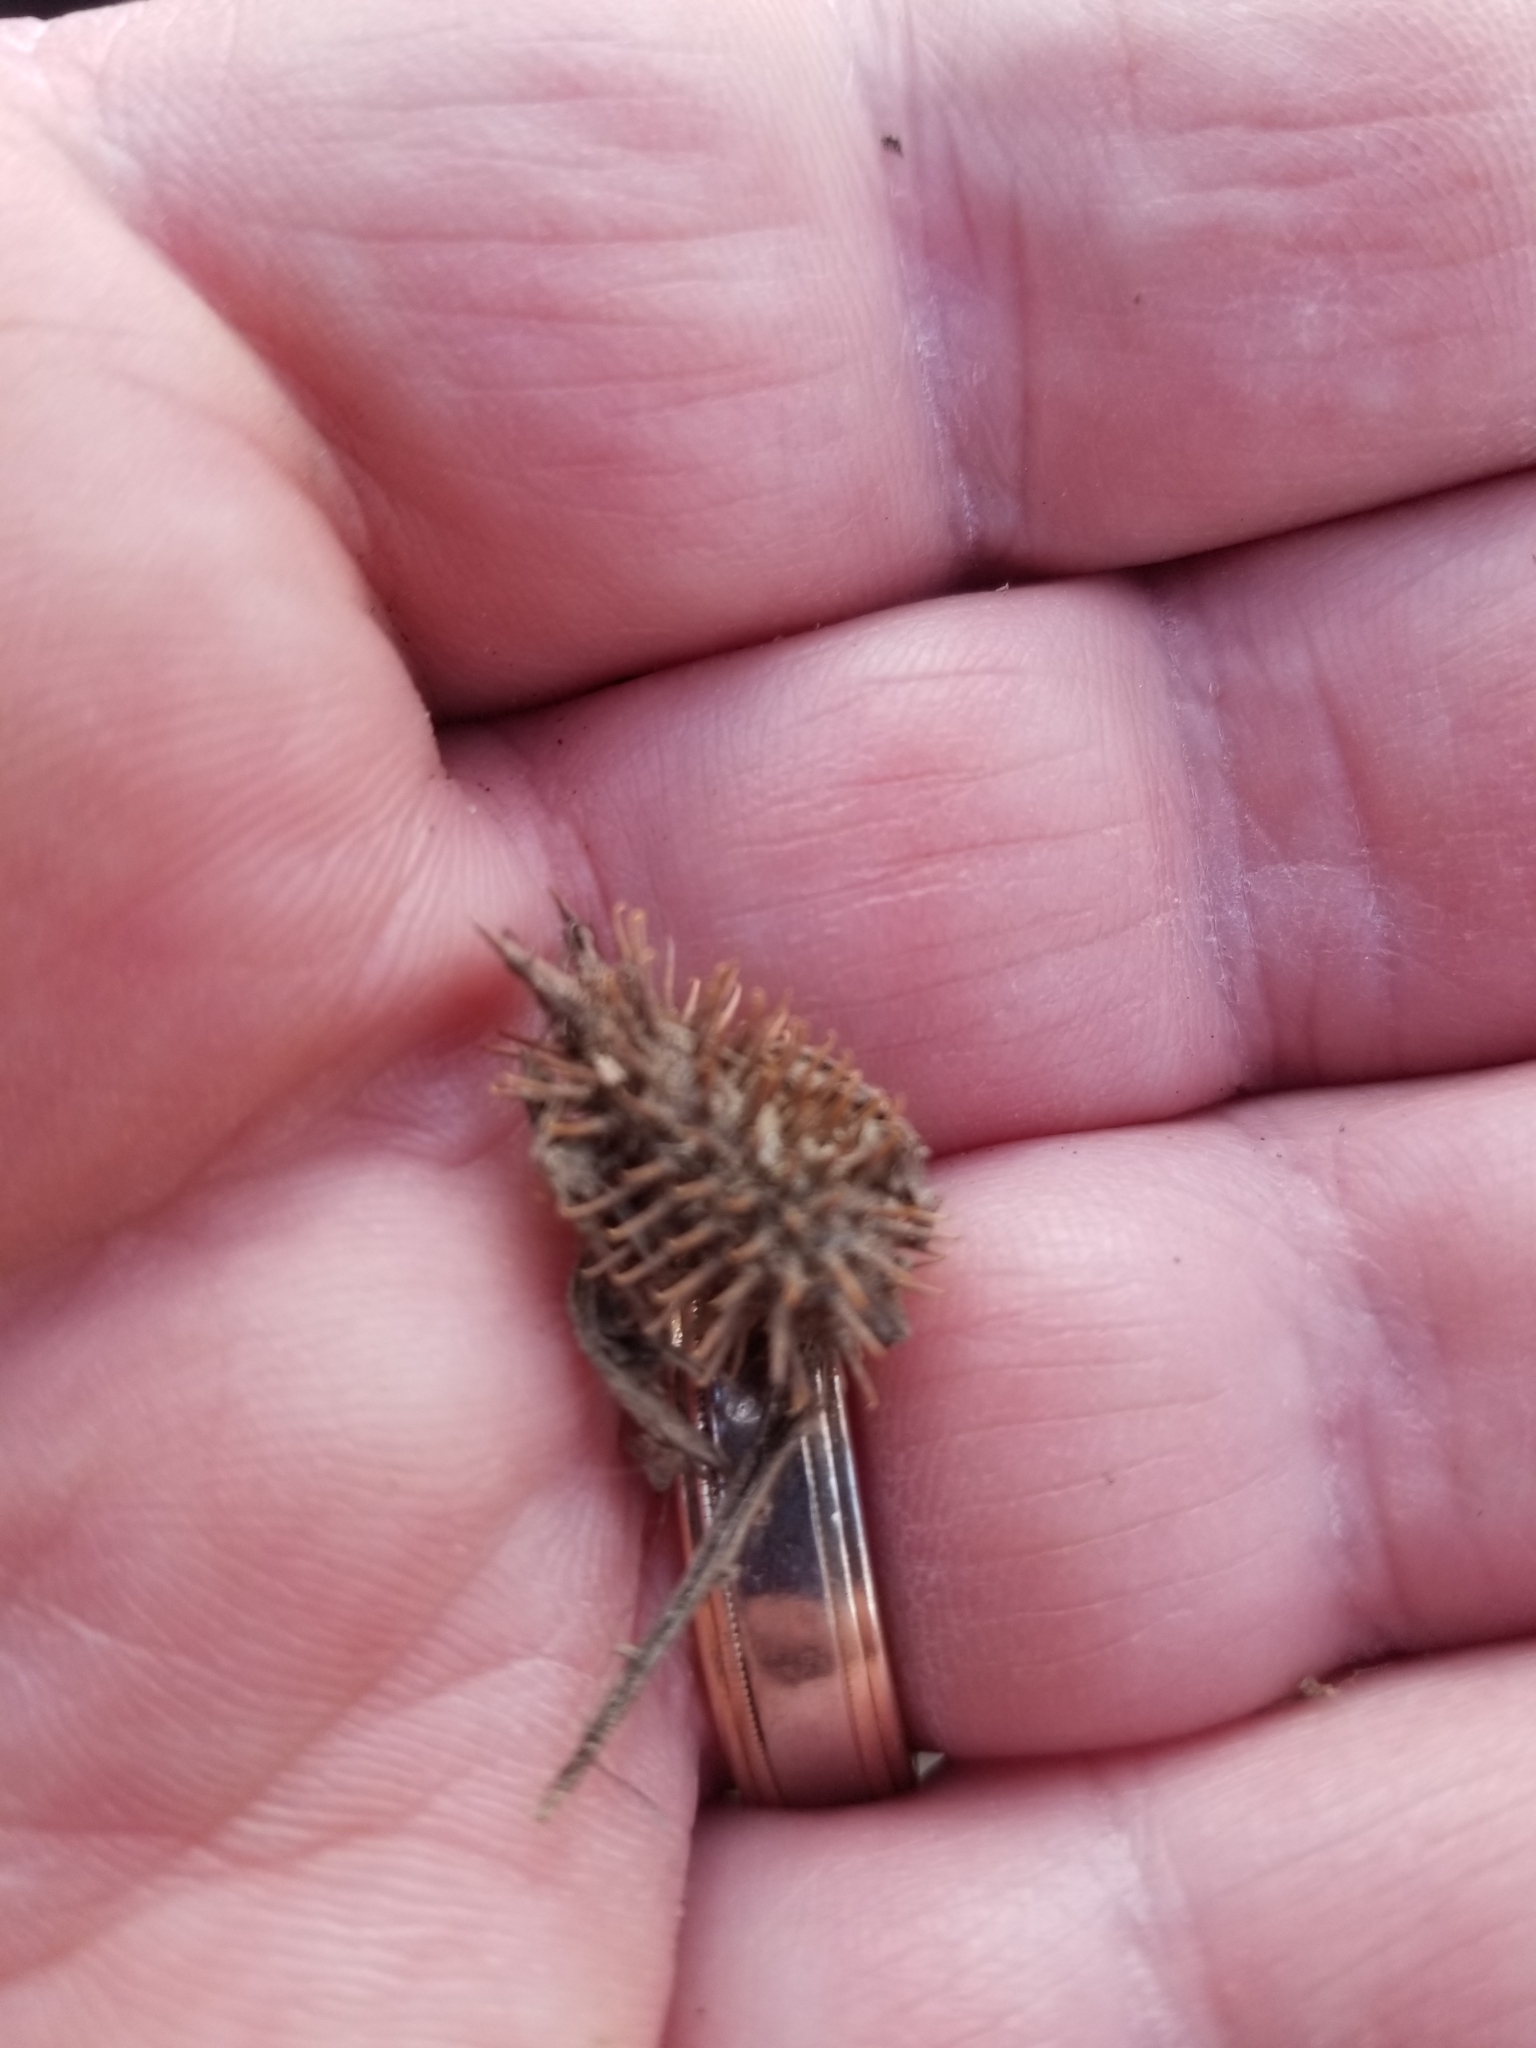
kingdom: Plantae
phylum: Tracheophyta
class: Magnoliopsida
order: Asterales
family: Asteraceae
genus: Xanthium
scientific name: Xanthium strumarium
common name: Rough cocklebur
